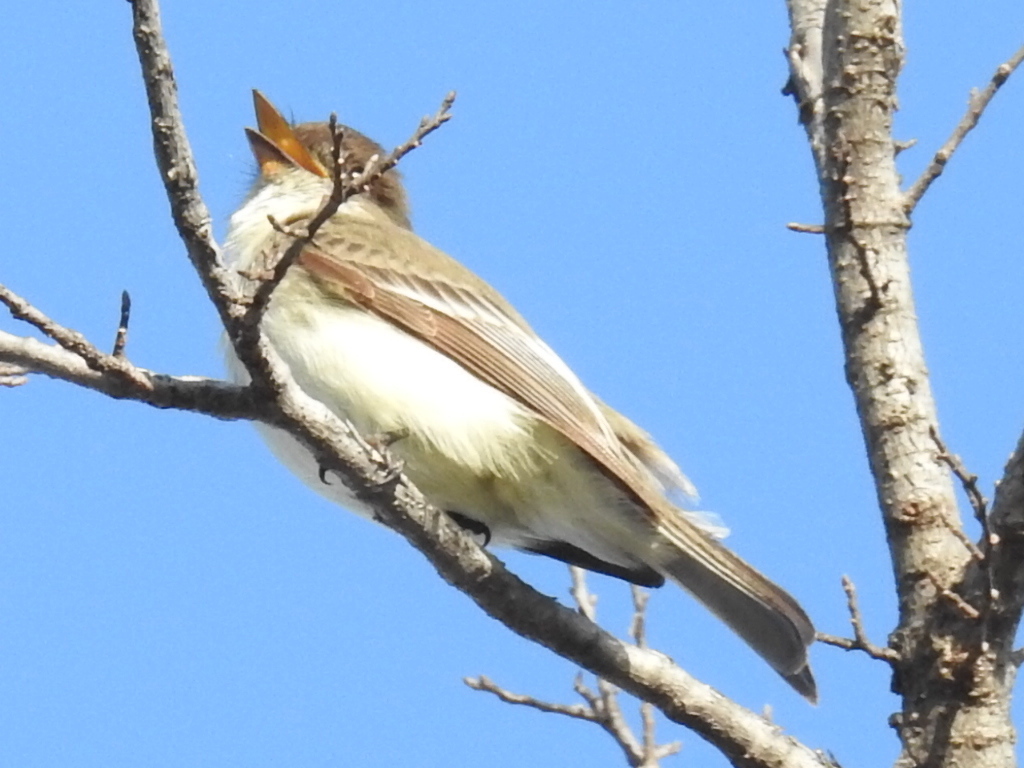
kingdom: Animalia
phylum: Chordata
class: Aves
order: Passeriformes
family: Tyrannidae
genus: Sayornis
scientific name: Sayornis phoebe
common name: Eastern phoebe
